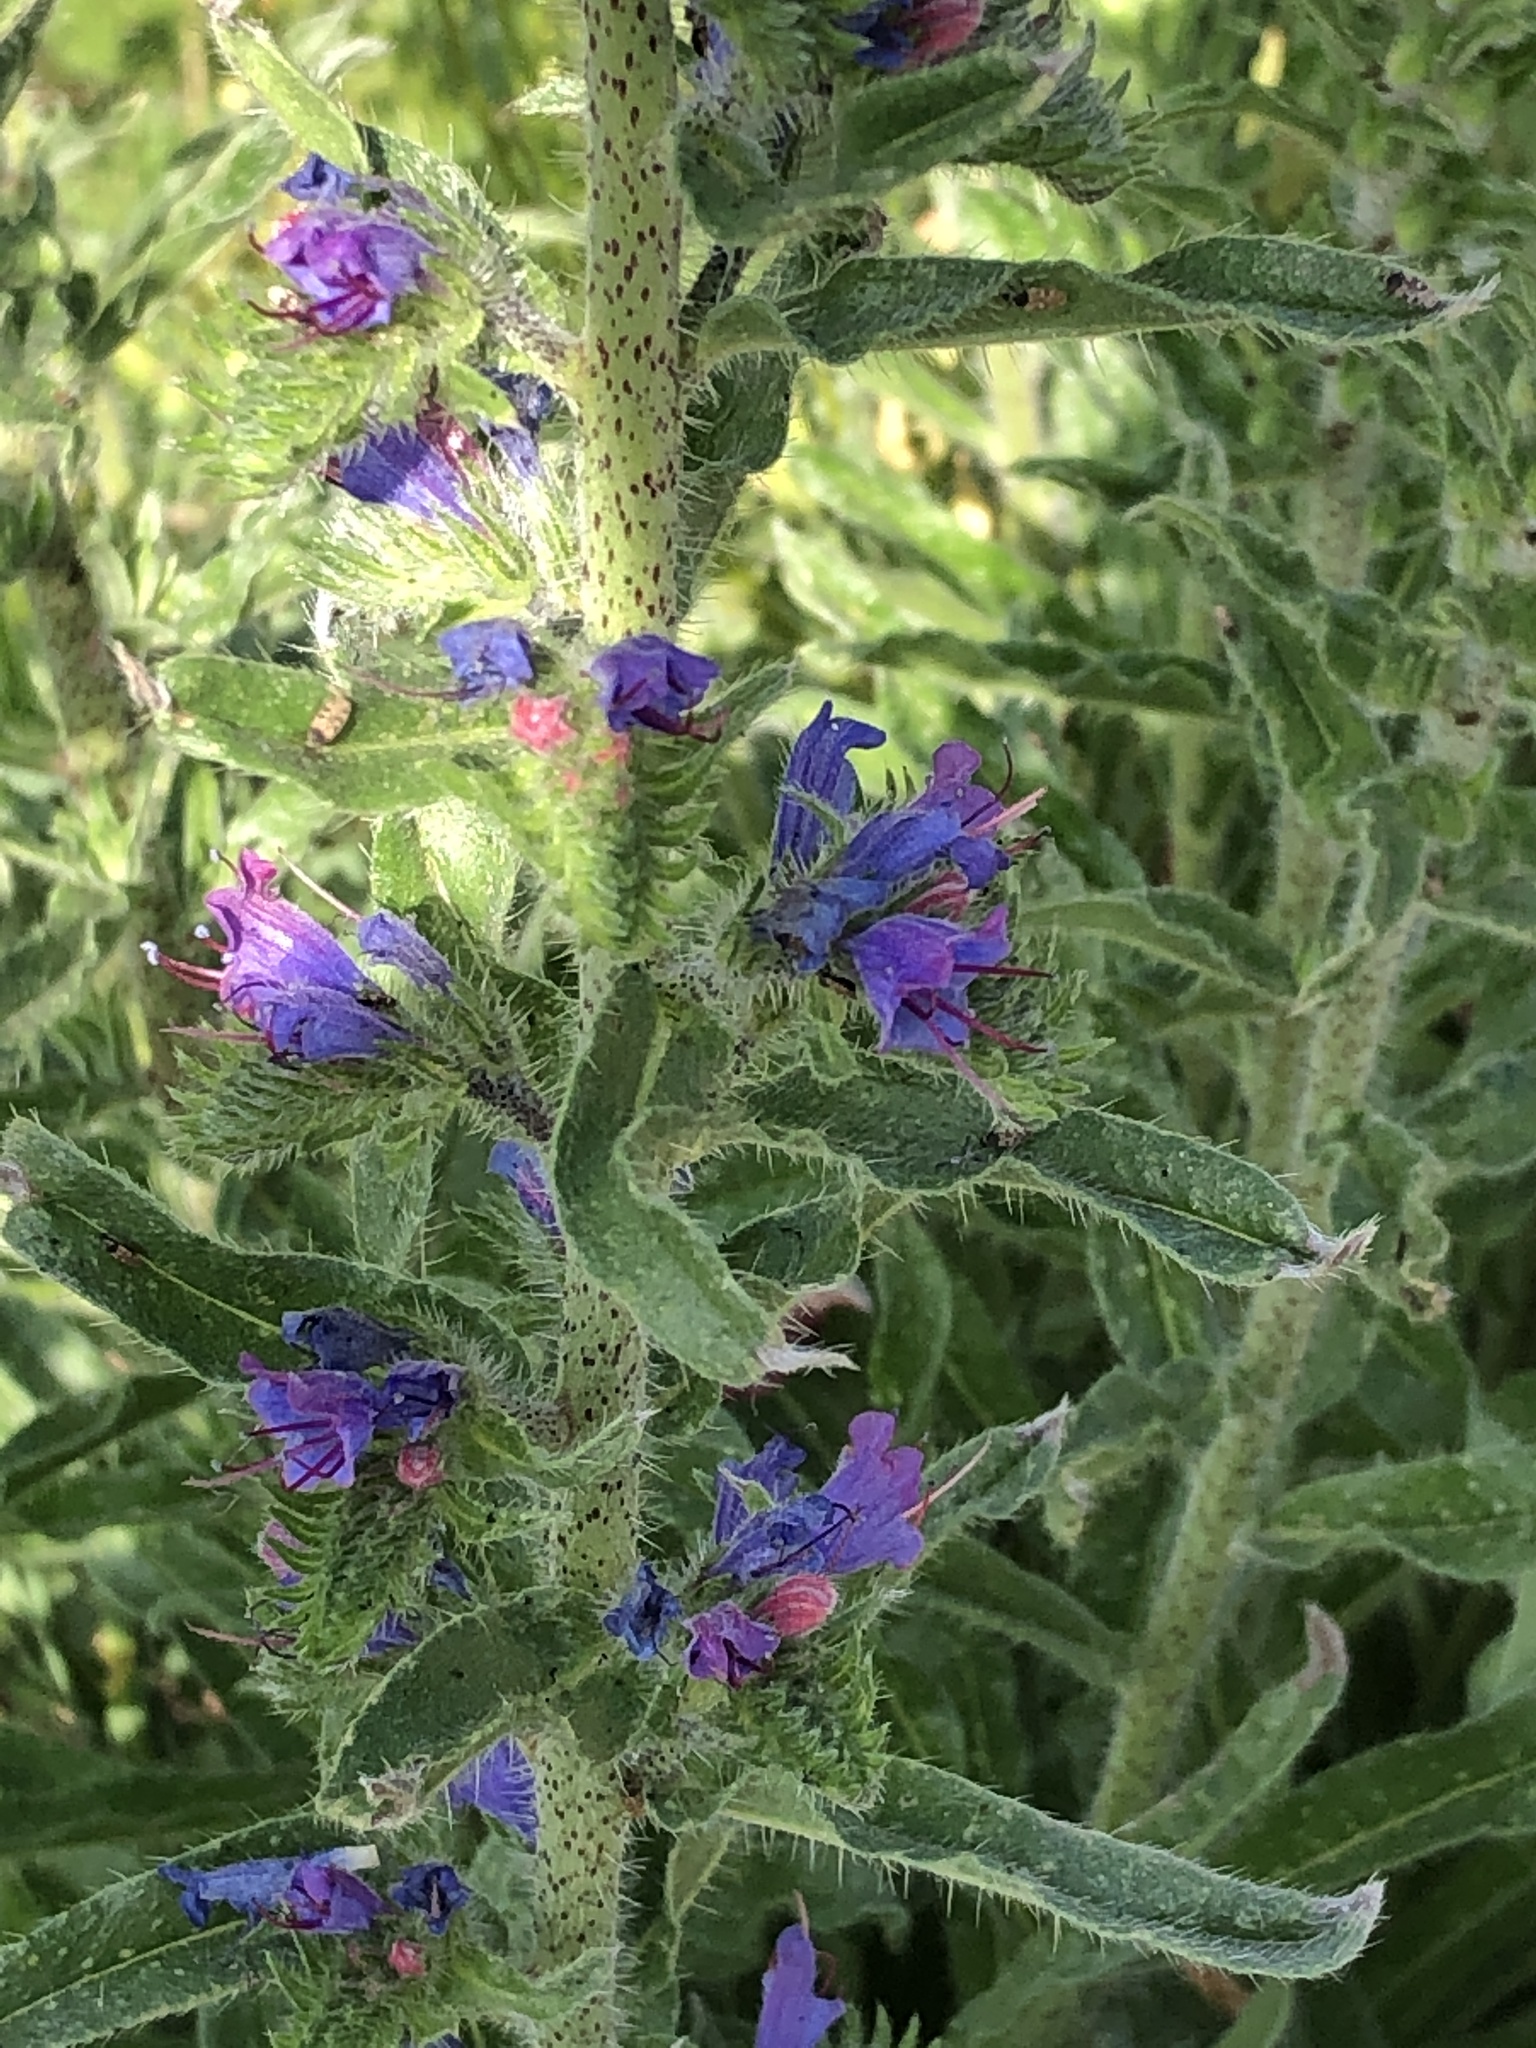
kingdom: Plantae
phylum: Tracheophyta
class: Magnoliopsida
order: Boraginales
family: Boraginaceae
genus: Echium
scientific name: Echium vulgare
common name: Common viper's bugloss
